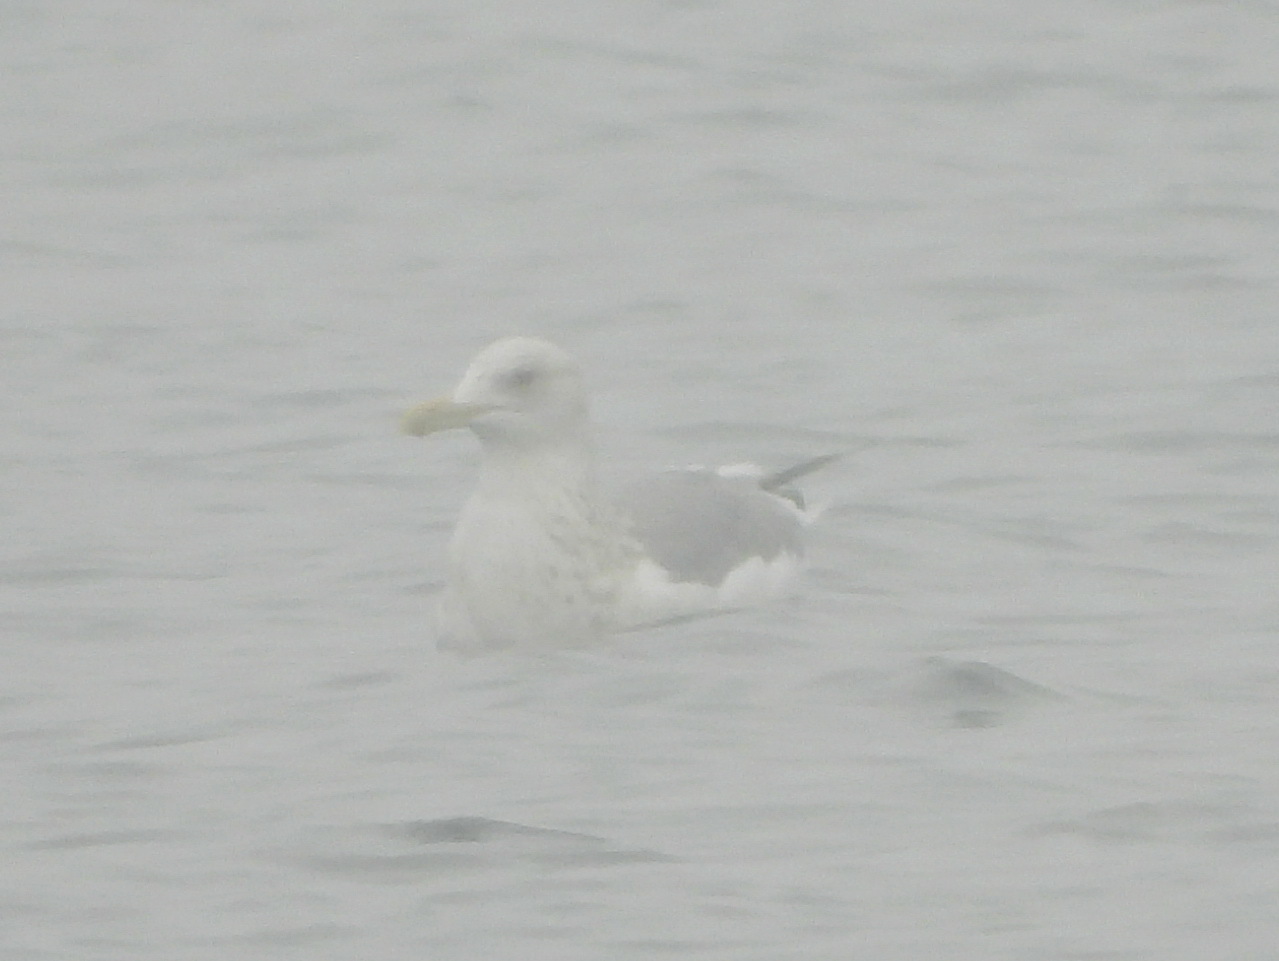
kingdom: Animalia
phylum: Chordata
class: Aves
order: Charadriiformes
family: Laridae
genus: Larus
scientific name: Larus schistisagus
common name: Slaty-backed gull
